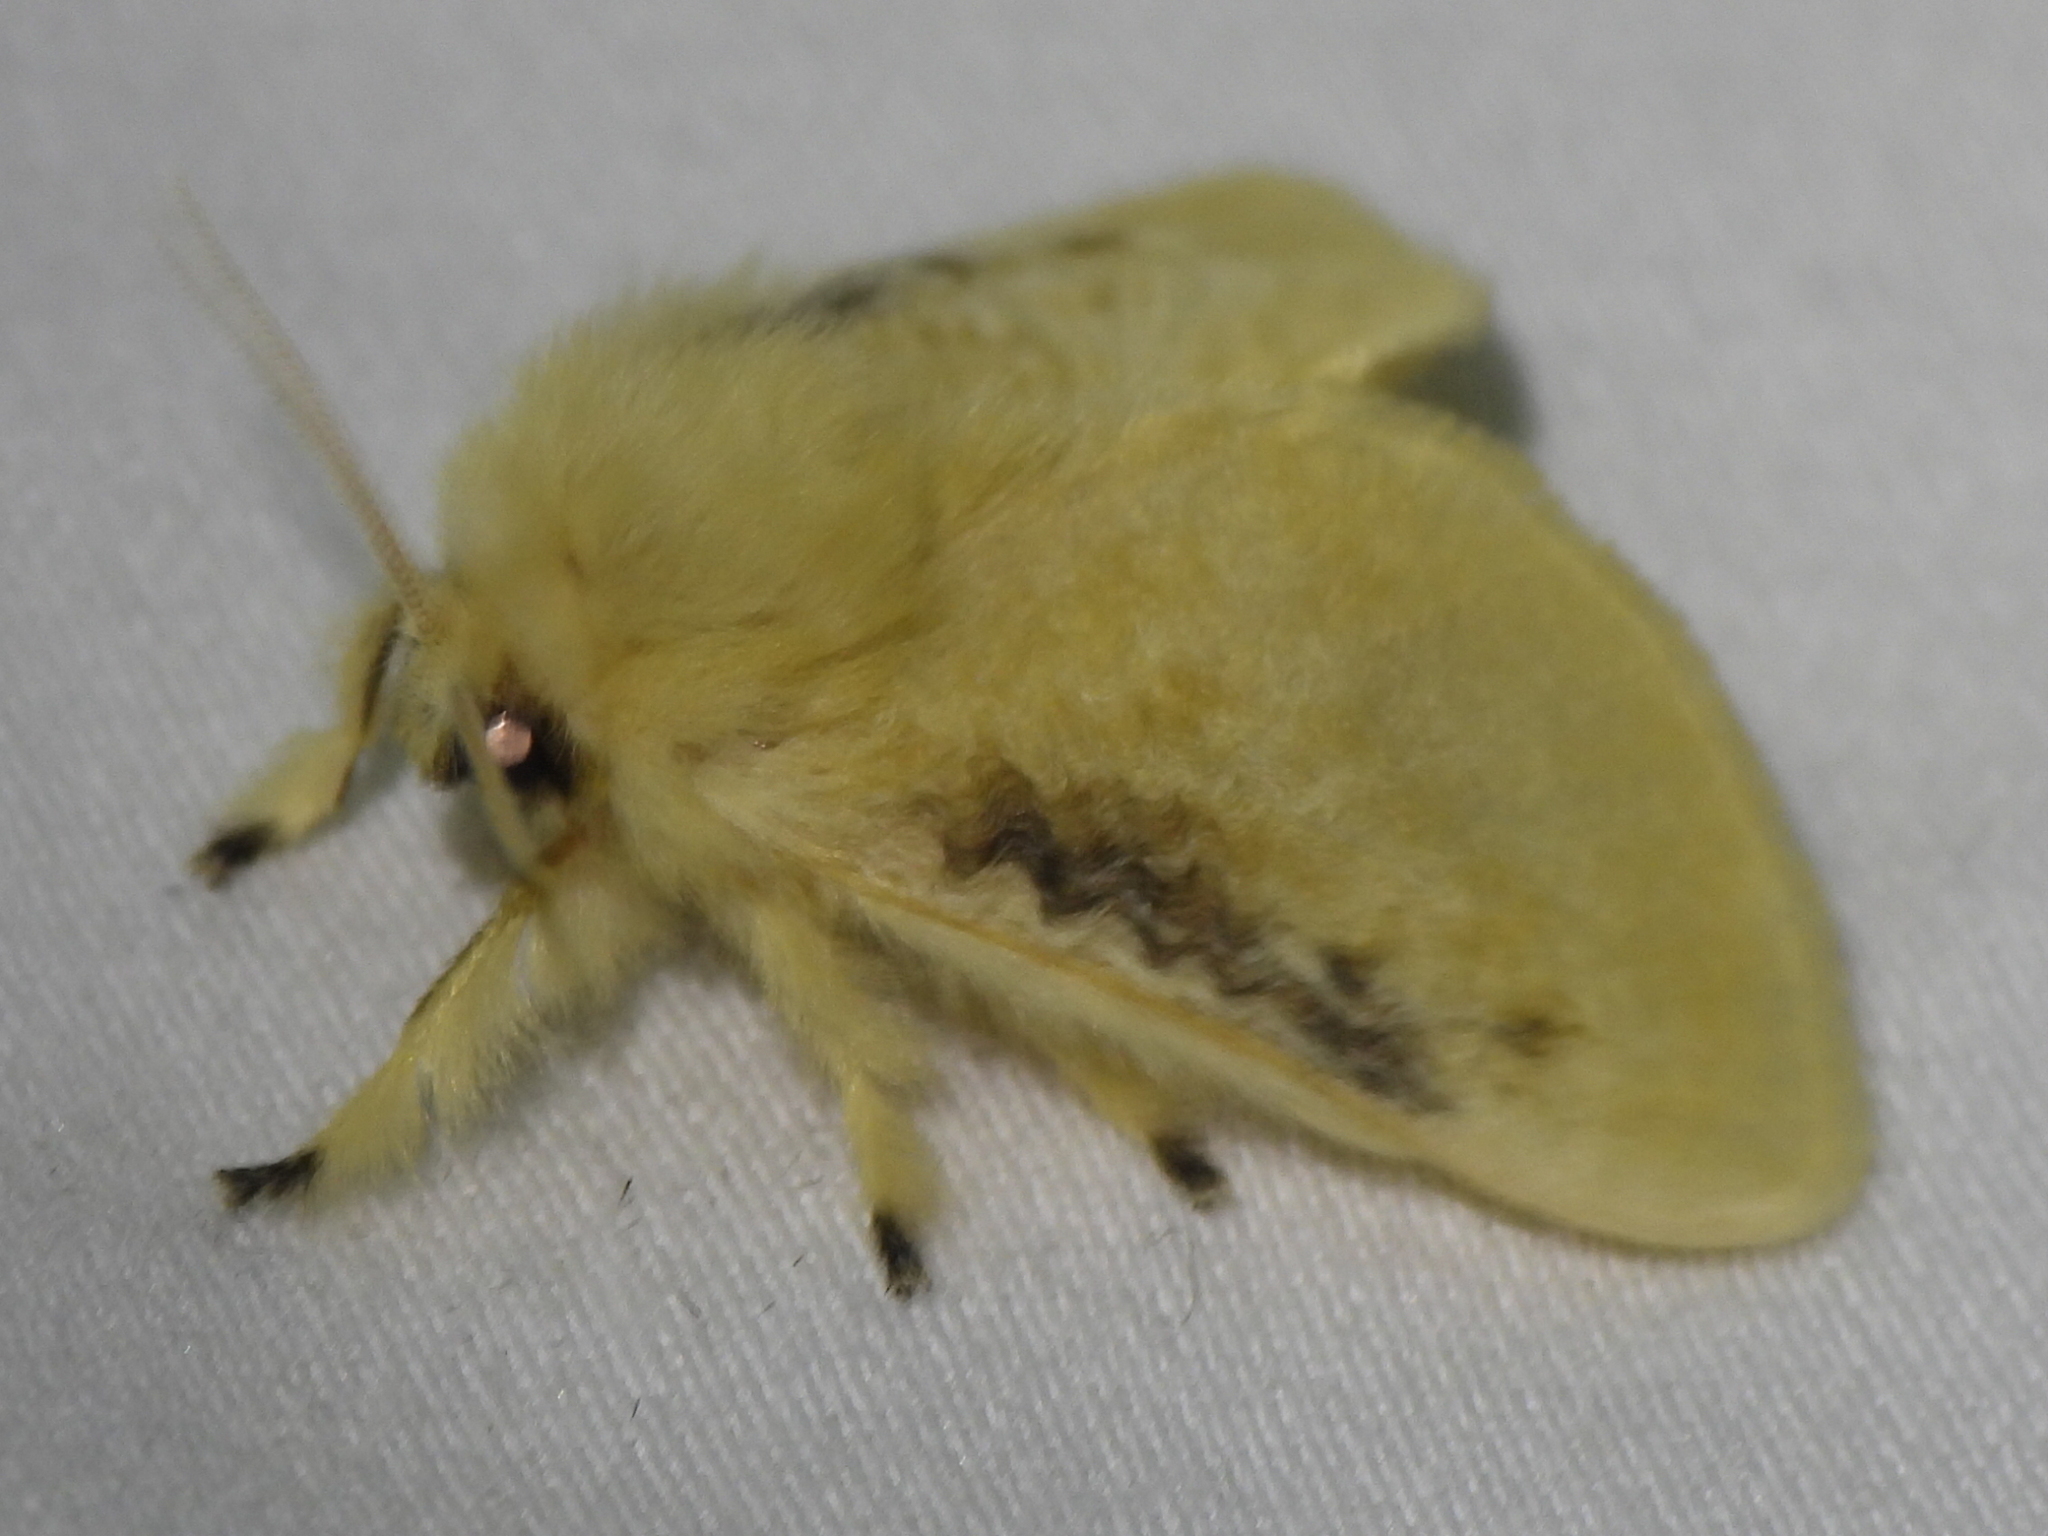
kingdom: Animalia
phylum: Arthropoda
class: Insecta
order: Lepidoptera
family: Megalopygidae
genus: Megalopyge
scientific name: Megalopyge crispata
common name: Black-waved flannel moth
